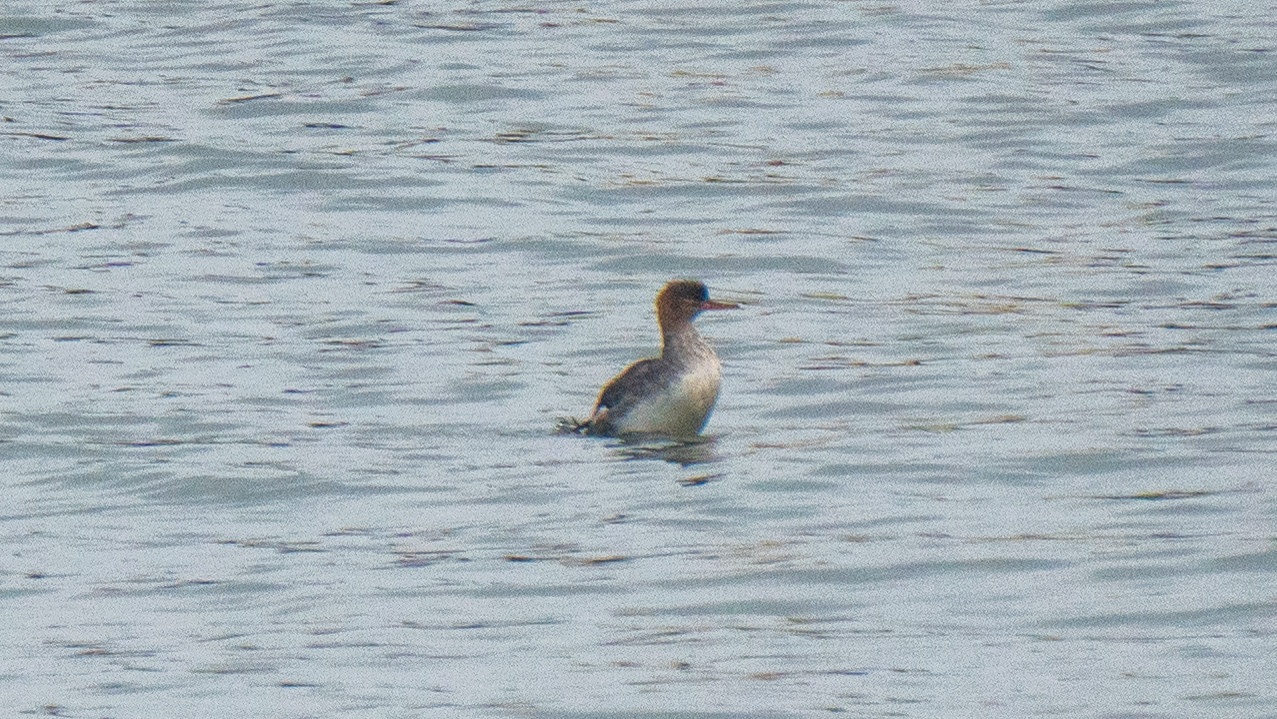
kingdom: Animalia
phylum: Chordata
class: Aves
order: Anseriformes
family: Anatidae
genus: Mergus
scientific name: Mergus serrator
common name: Red-breasted merganser
